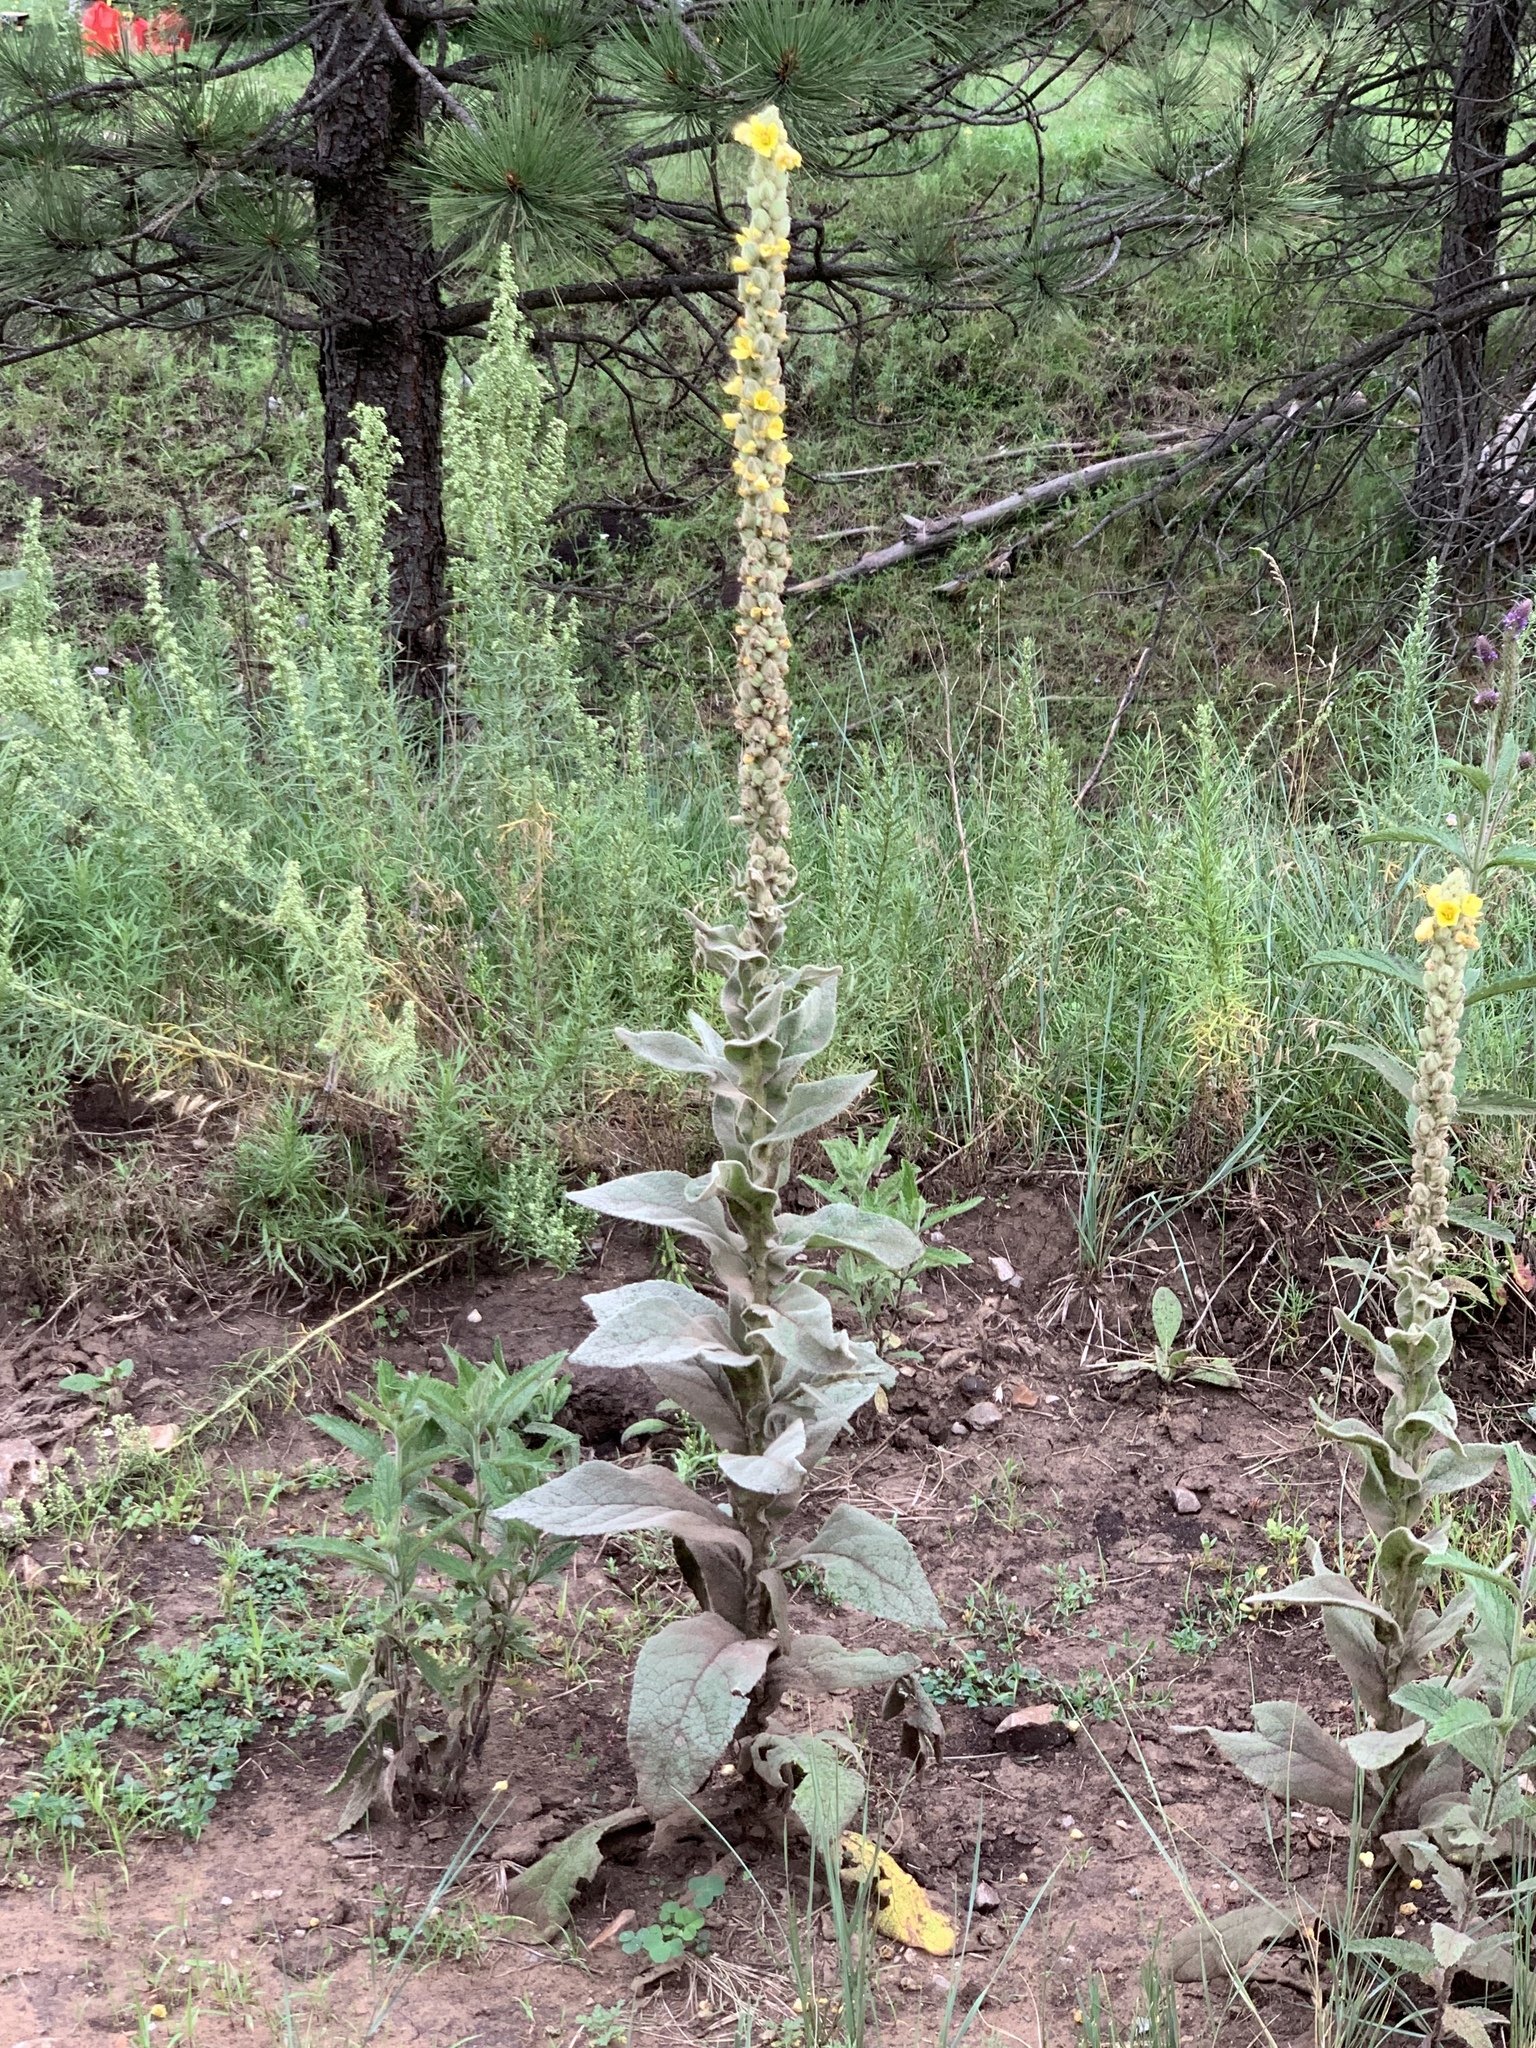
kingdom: Plantae
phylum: Tracheophyta
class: Magnoliopsida
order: Lamiales
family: Scrophulariaceae
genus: Verbascum
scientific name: Verbascum thapsus
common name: Common mullein
